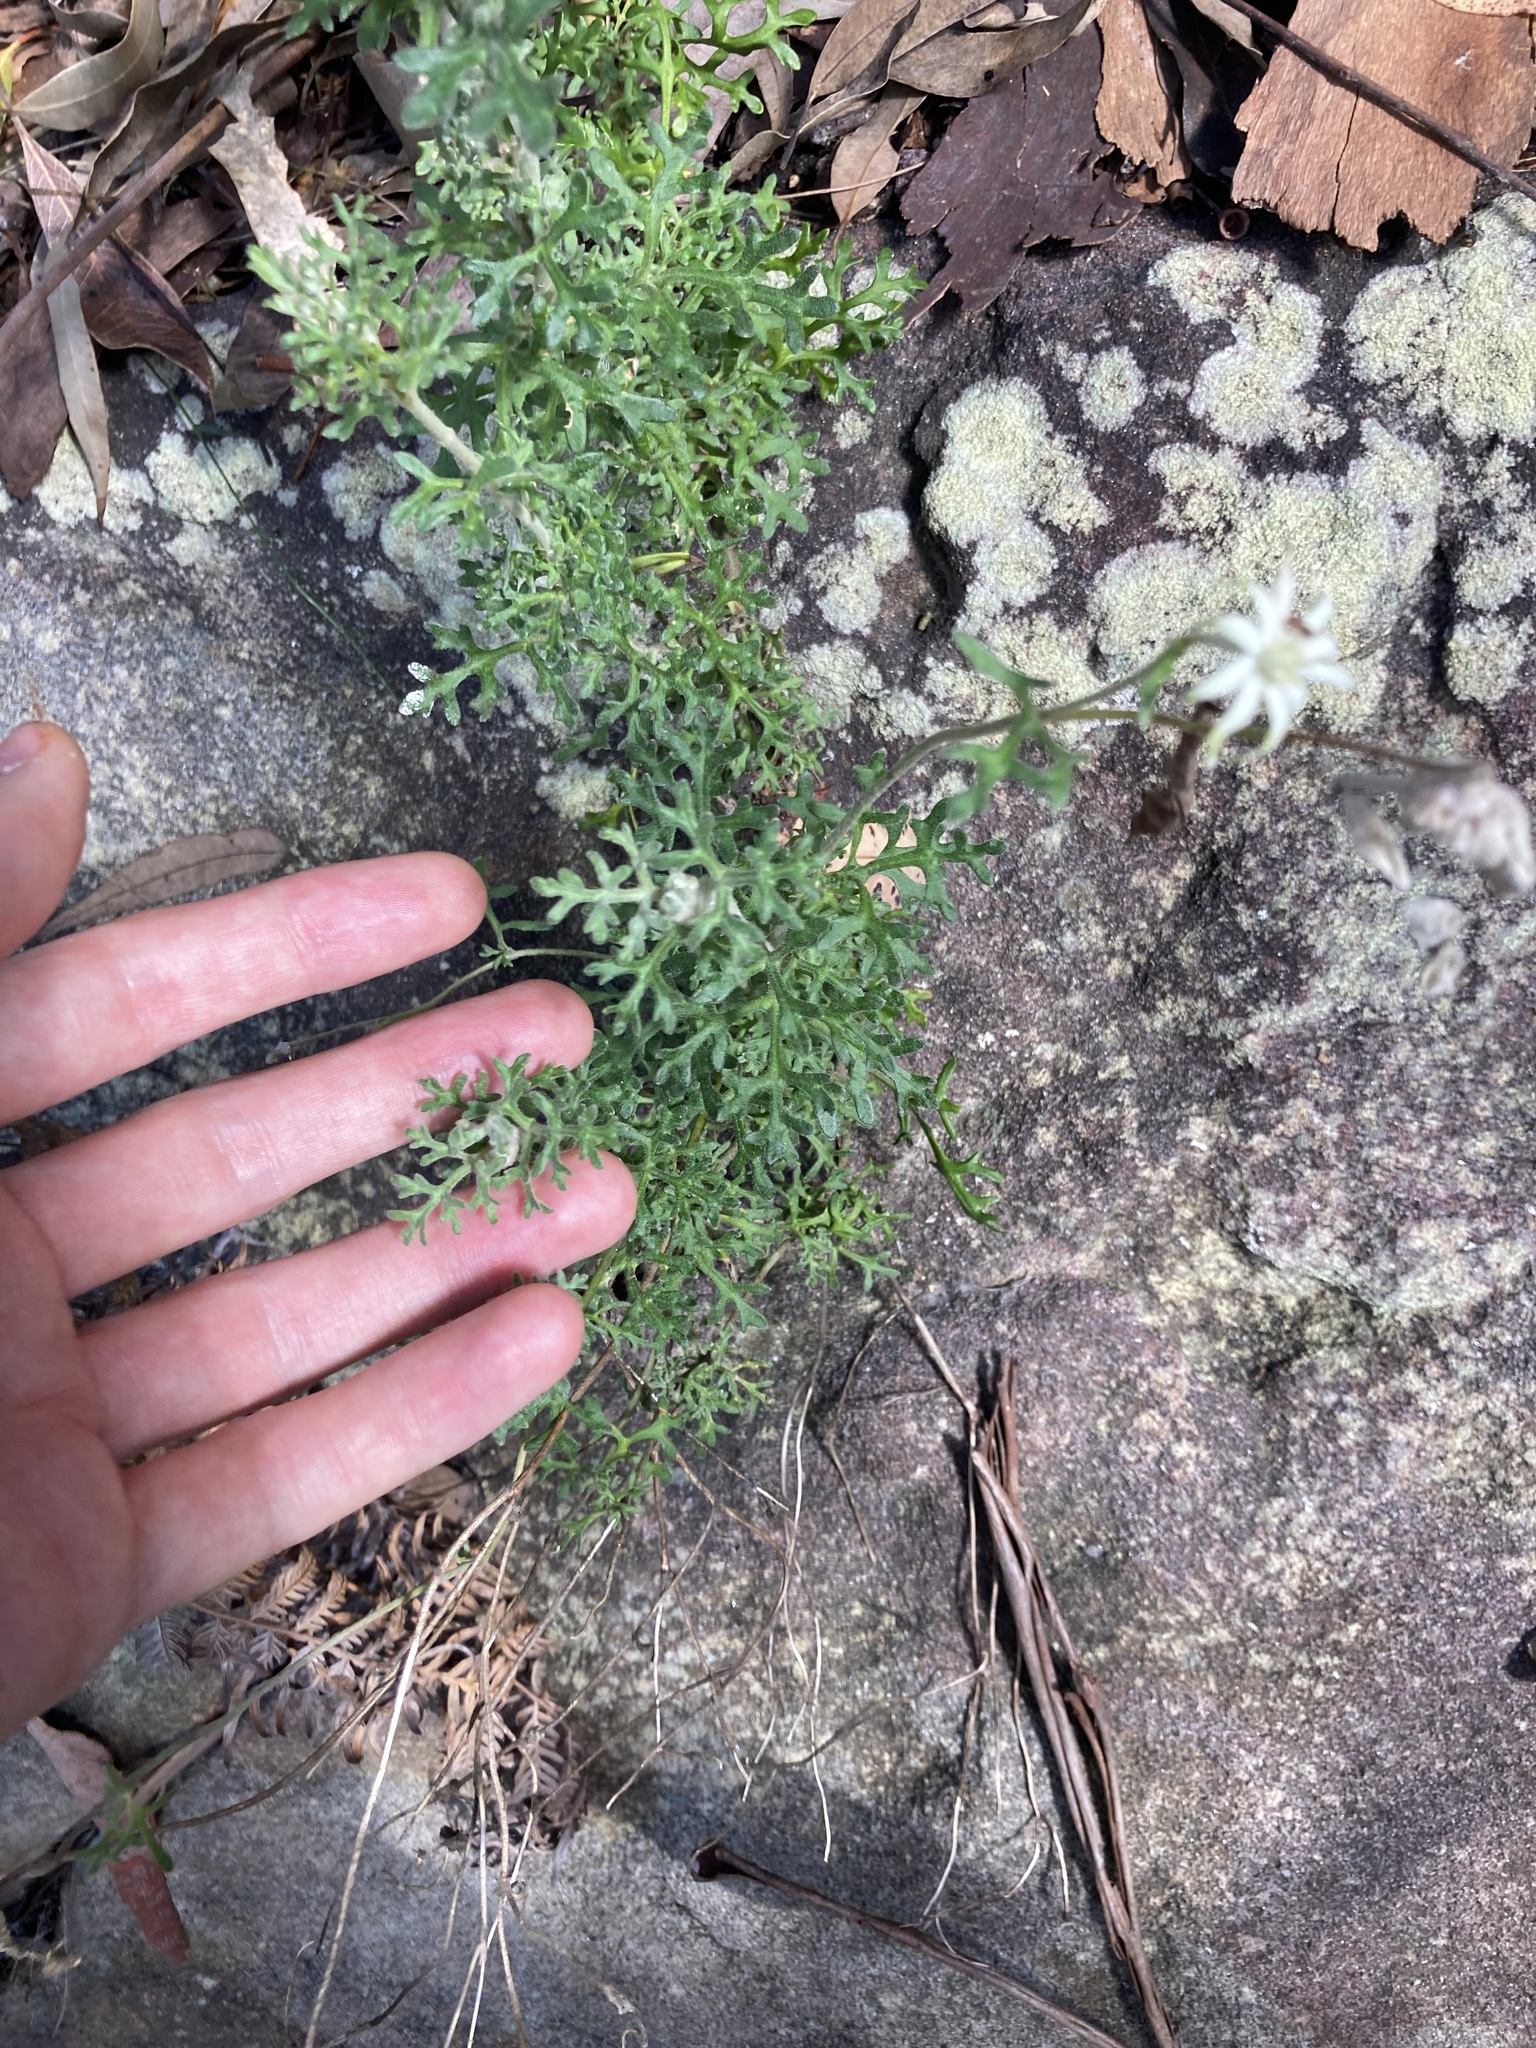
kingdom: Plantae
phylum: Tracheophyta
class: Magnoliopsida
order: Apiales
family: Apiaceae
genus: Actinotus
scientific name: Actinotus helianthi
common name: Flannel-flower
